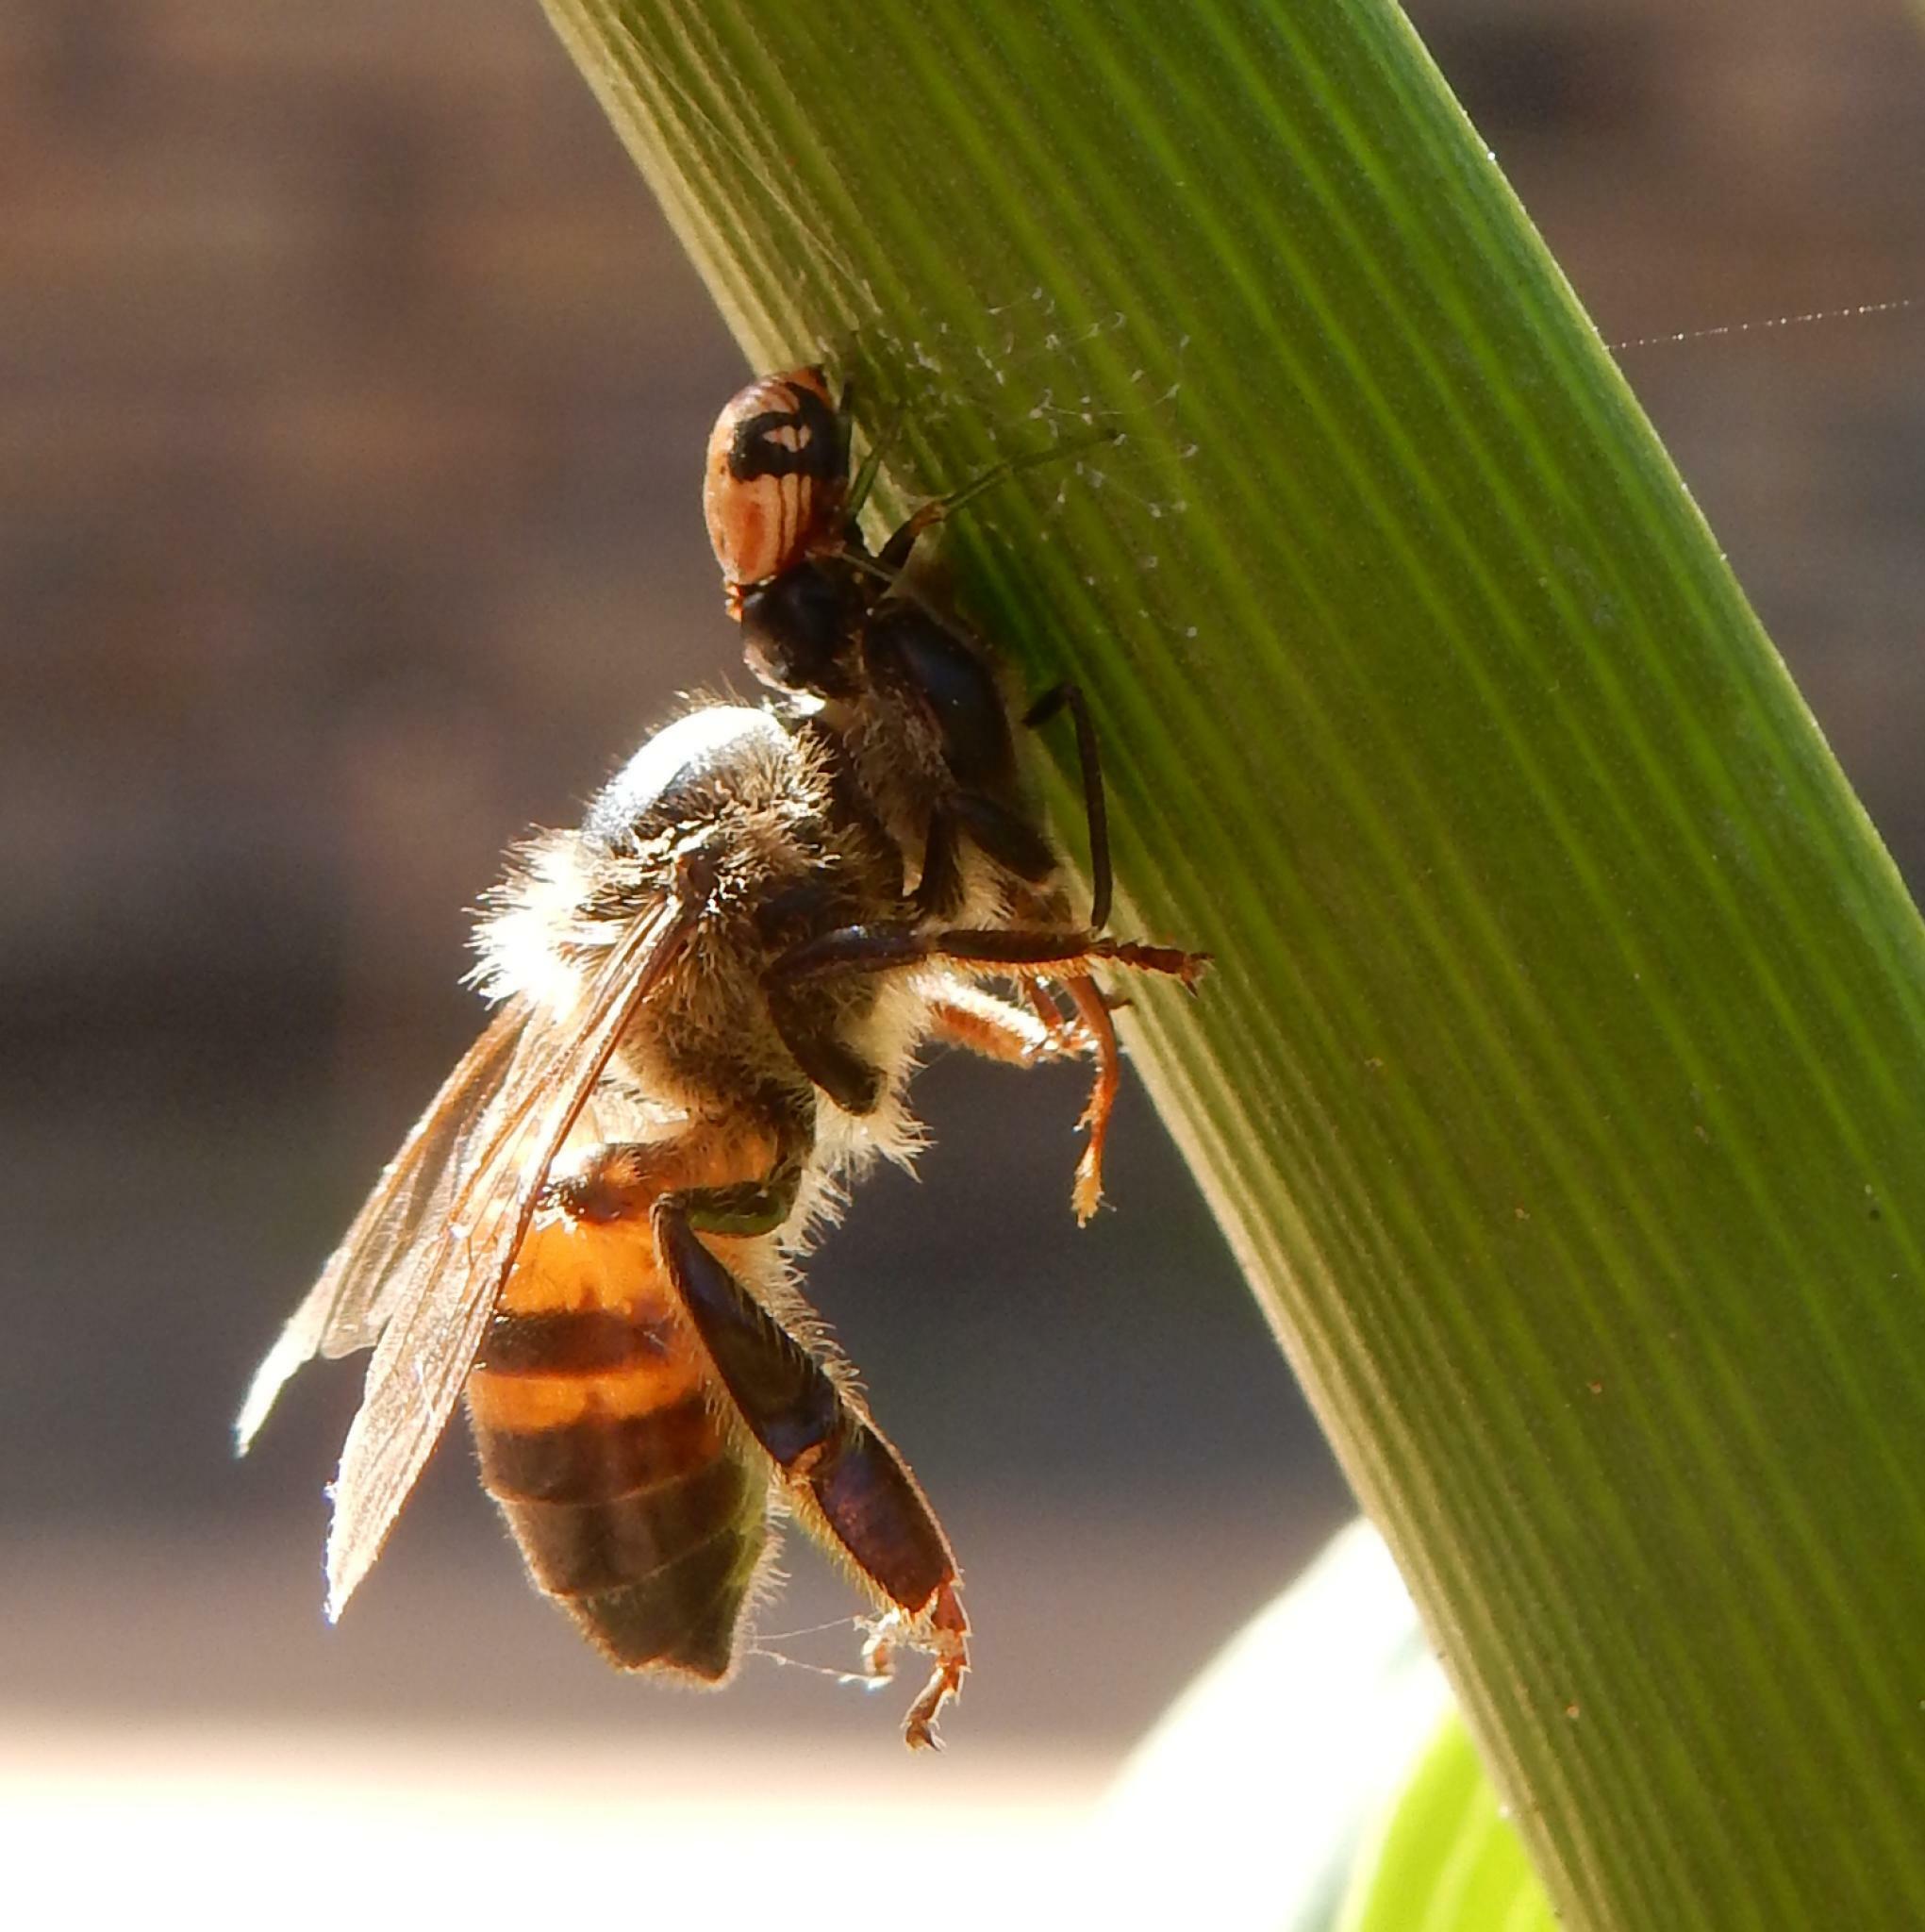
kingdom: Animalia
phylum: Arthropoda
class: Insecta
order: Hymenoptera
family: Apidae
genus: Apis
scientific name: Apis mellifera
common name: Honey bee
